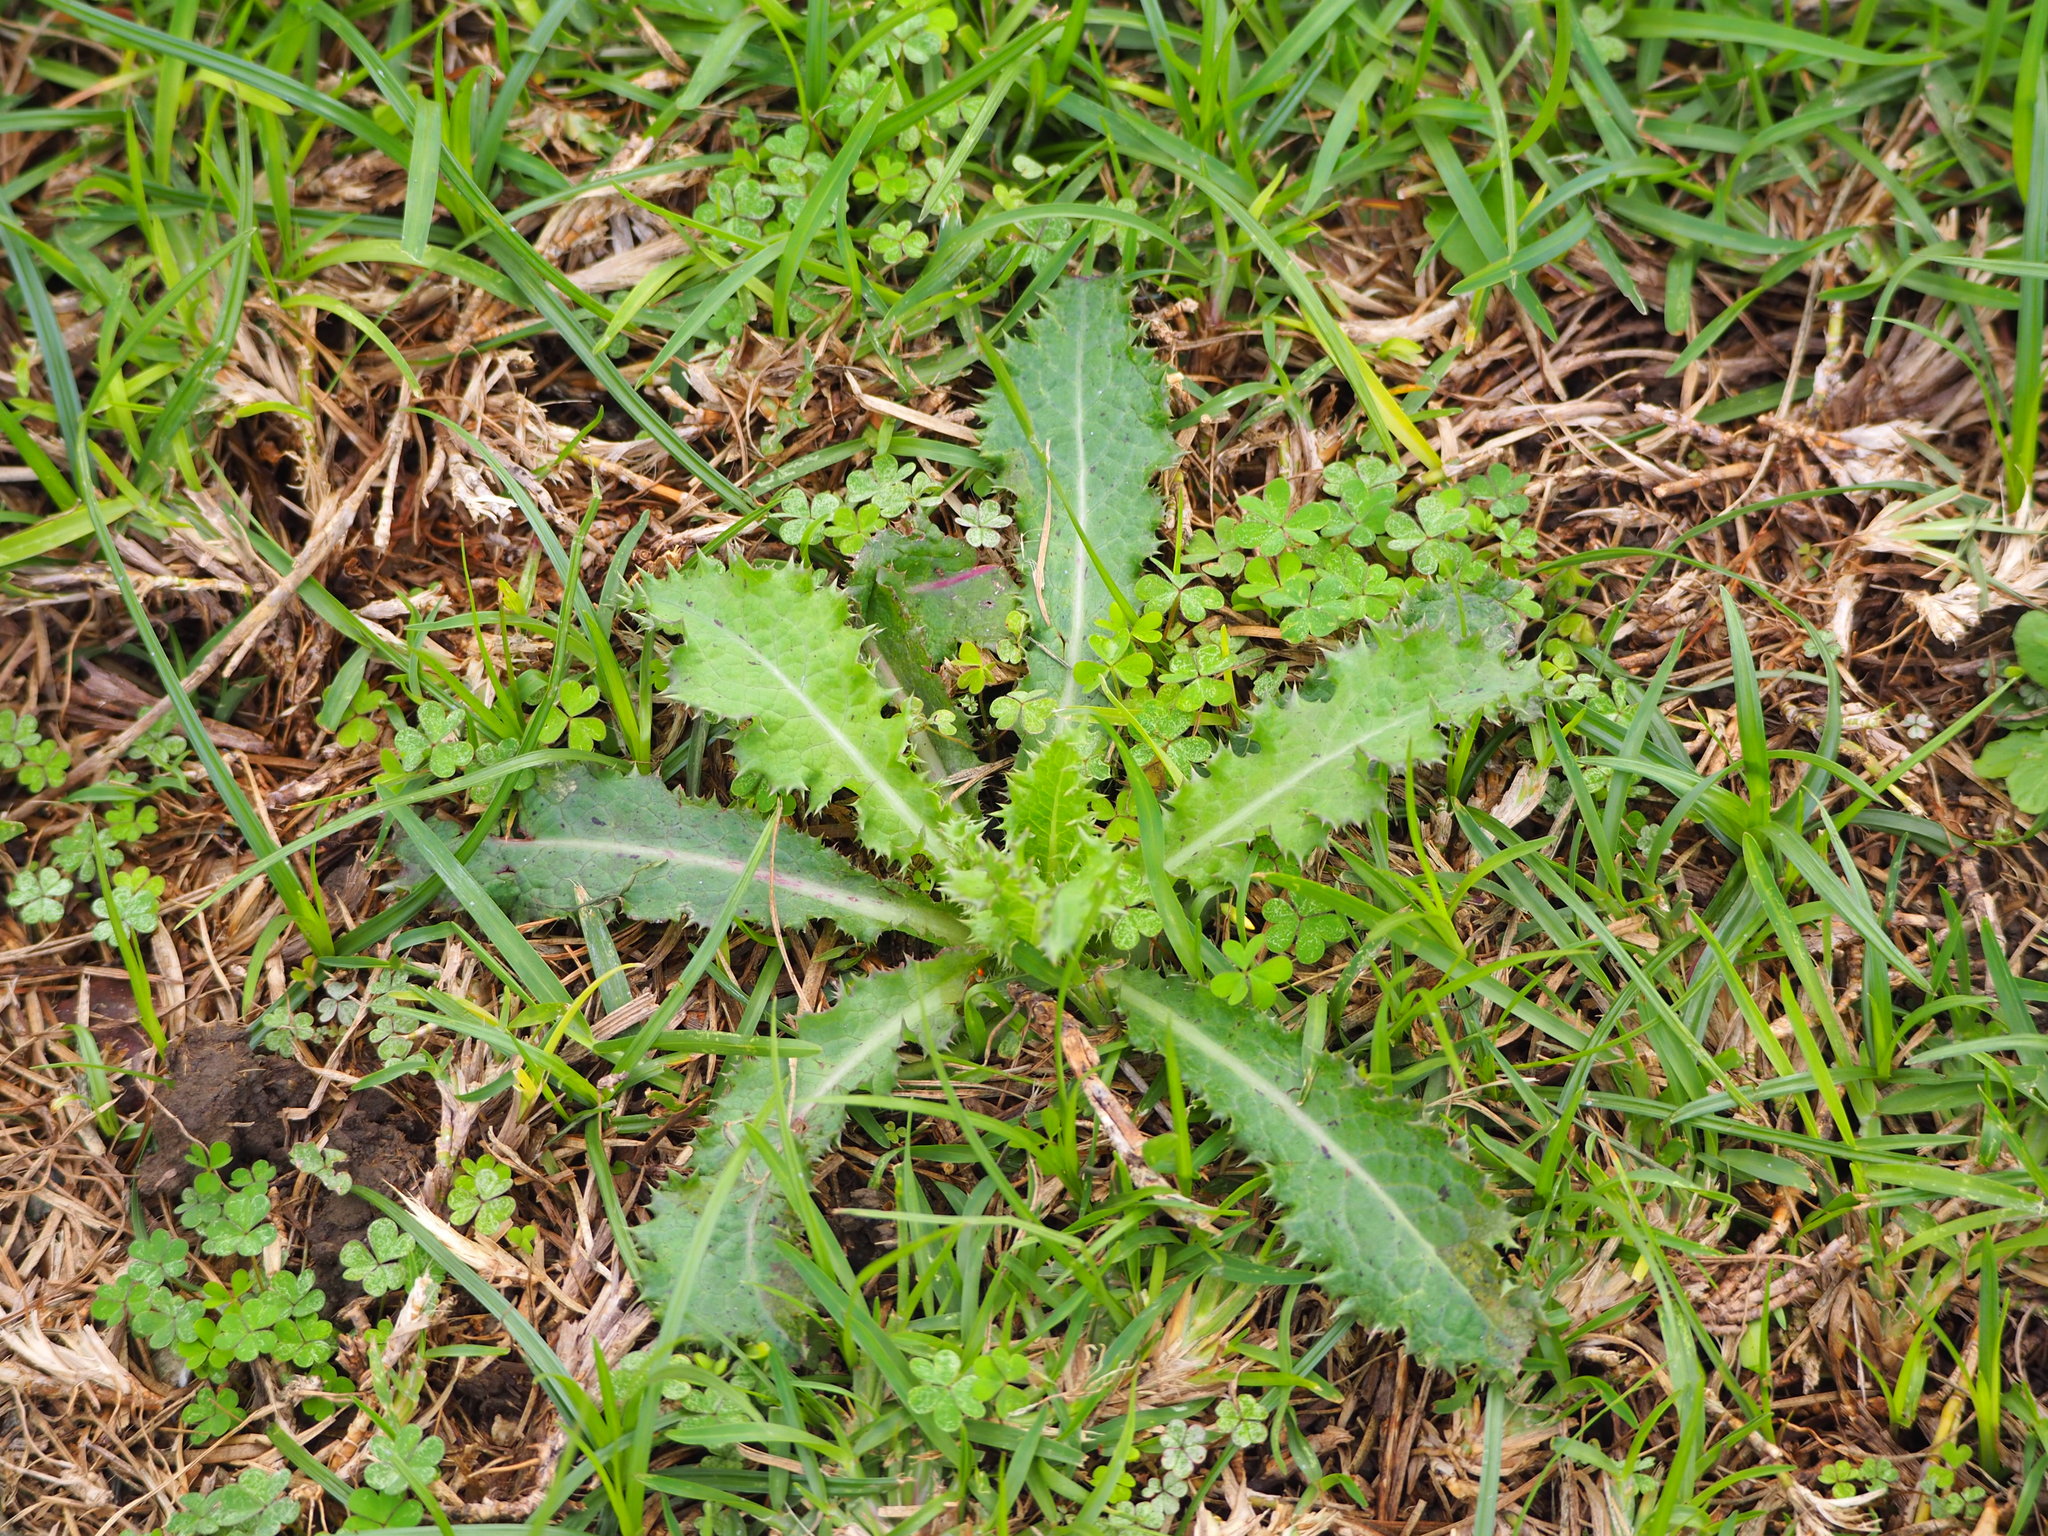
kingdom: Plantae
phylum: Tracheophyta
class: Magnoliopsida
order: Asterales
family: Asteraceae
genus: Sonchus
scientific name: Sonchus asper
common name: Prickly sow-thistle
